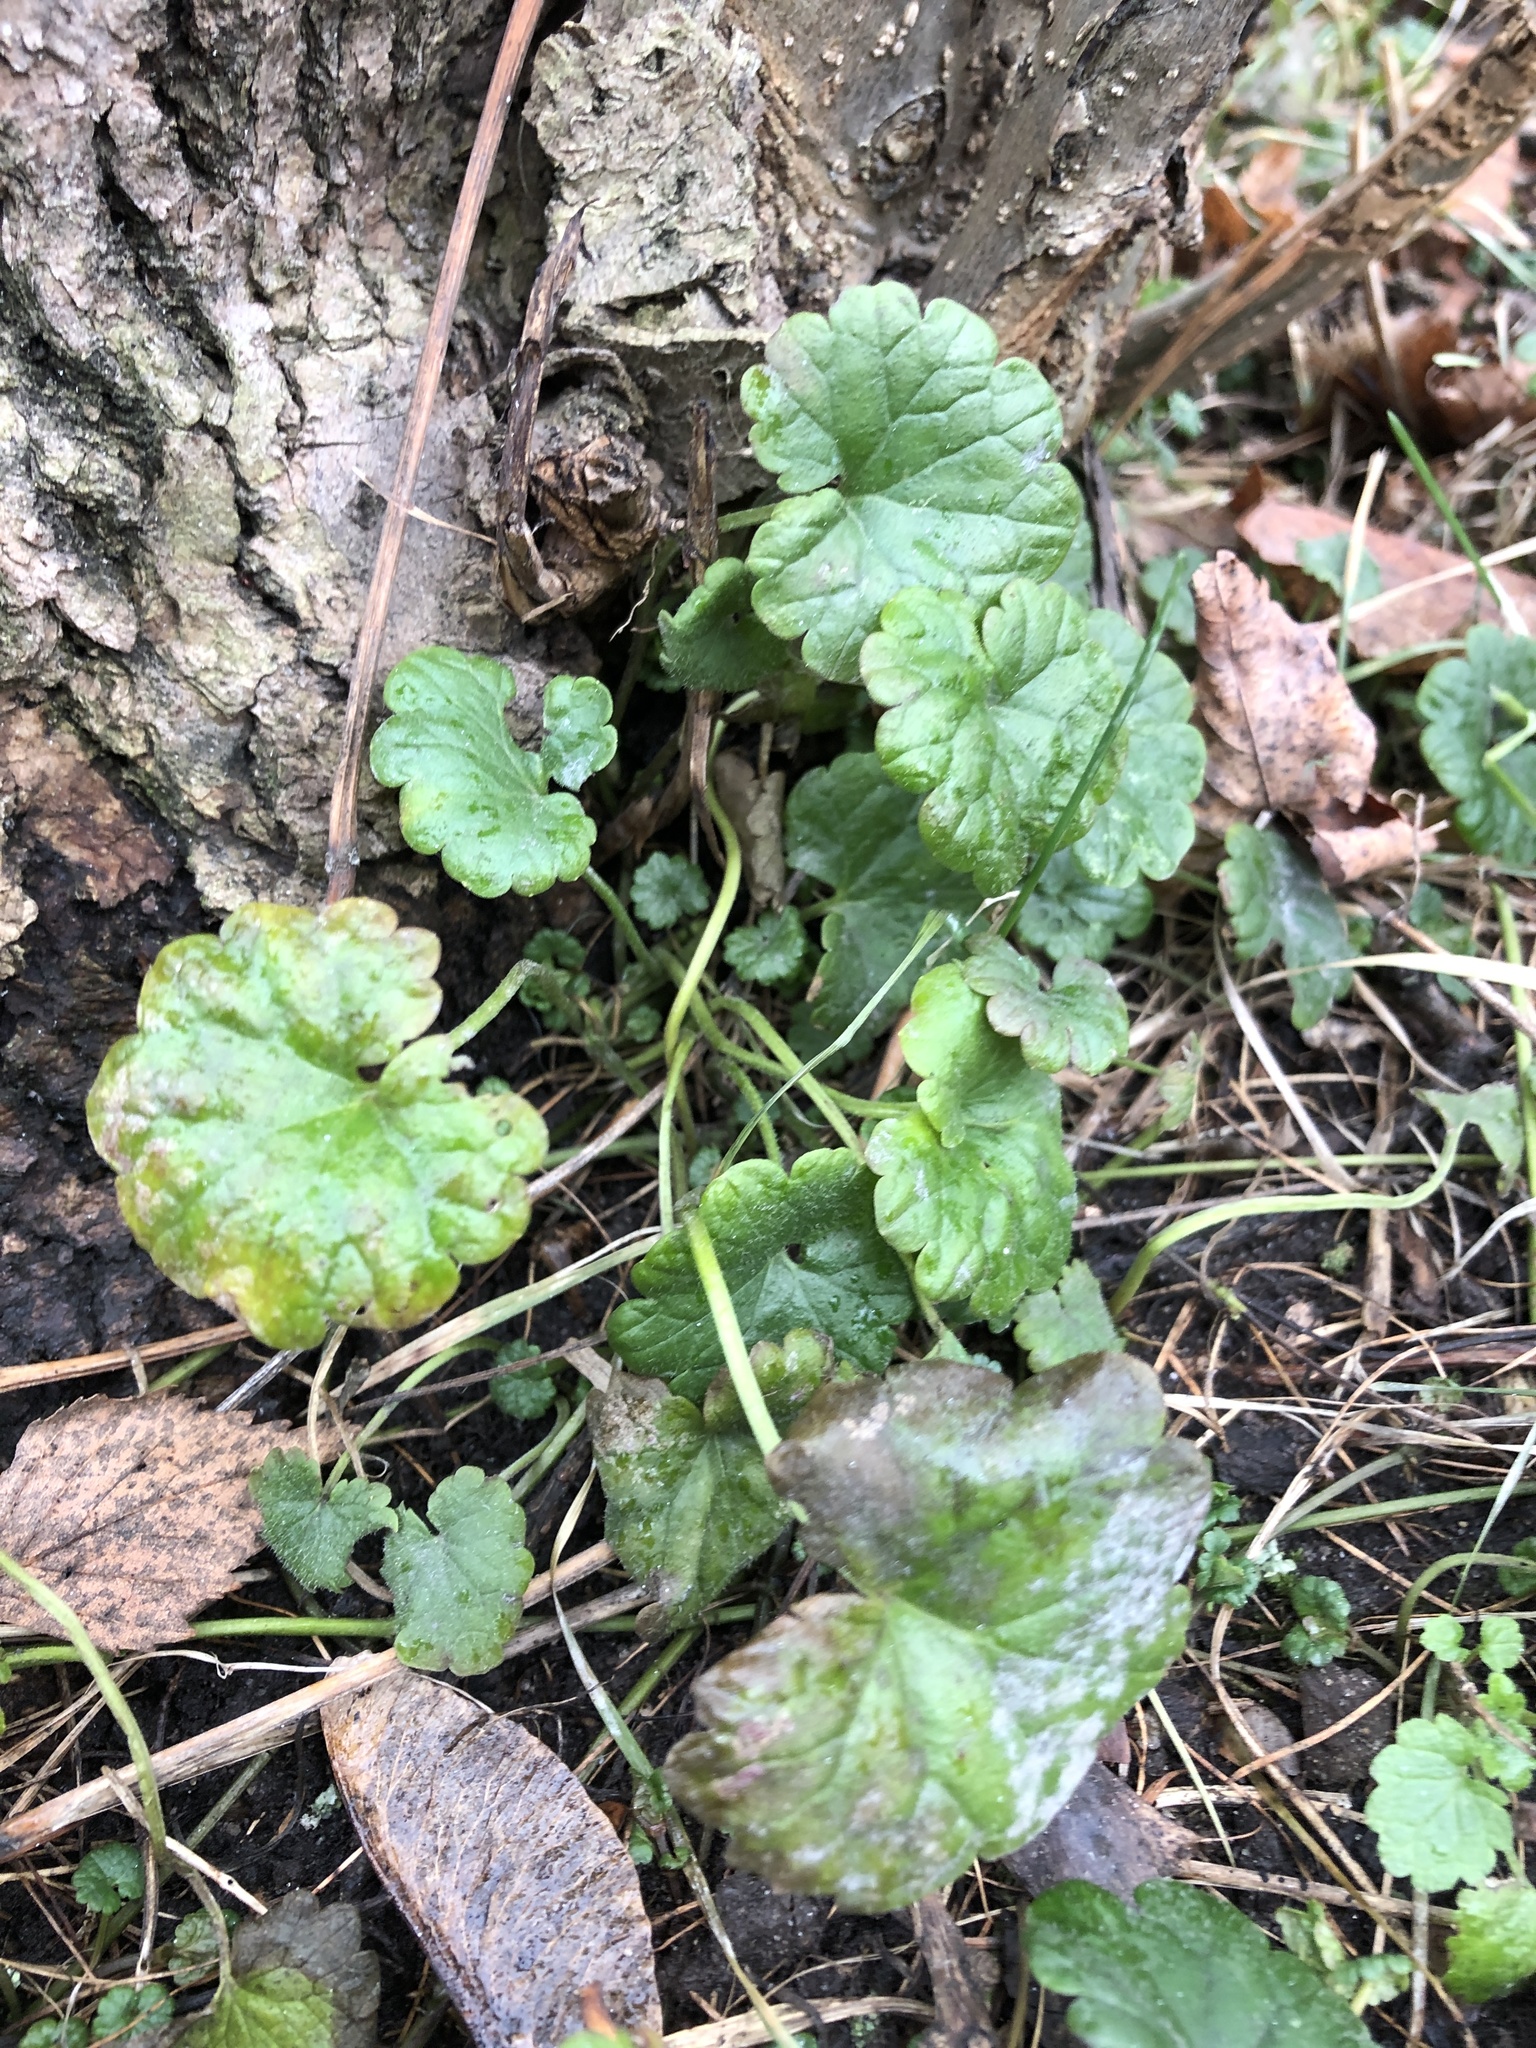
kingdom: Plantae
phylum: Tracheophyta
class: Magnoliopsida
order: Lamiales
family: Lamiaceae
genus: Glechoma
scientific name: Glechoma hederacea
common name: Ground ivy
